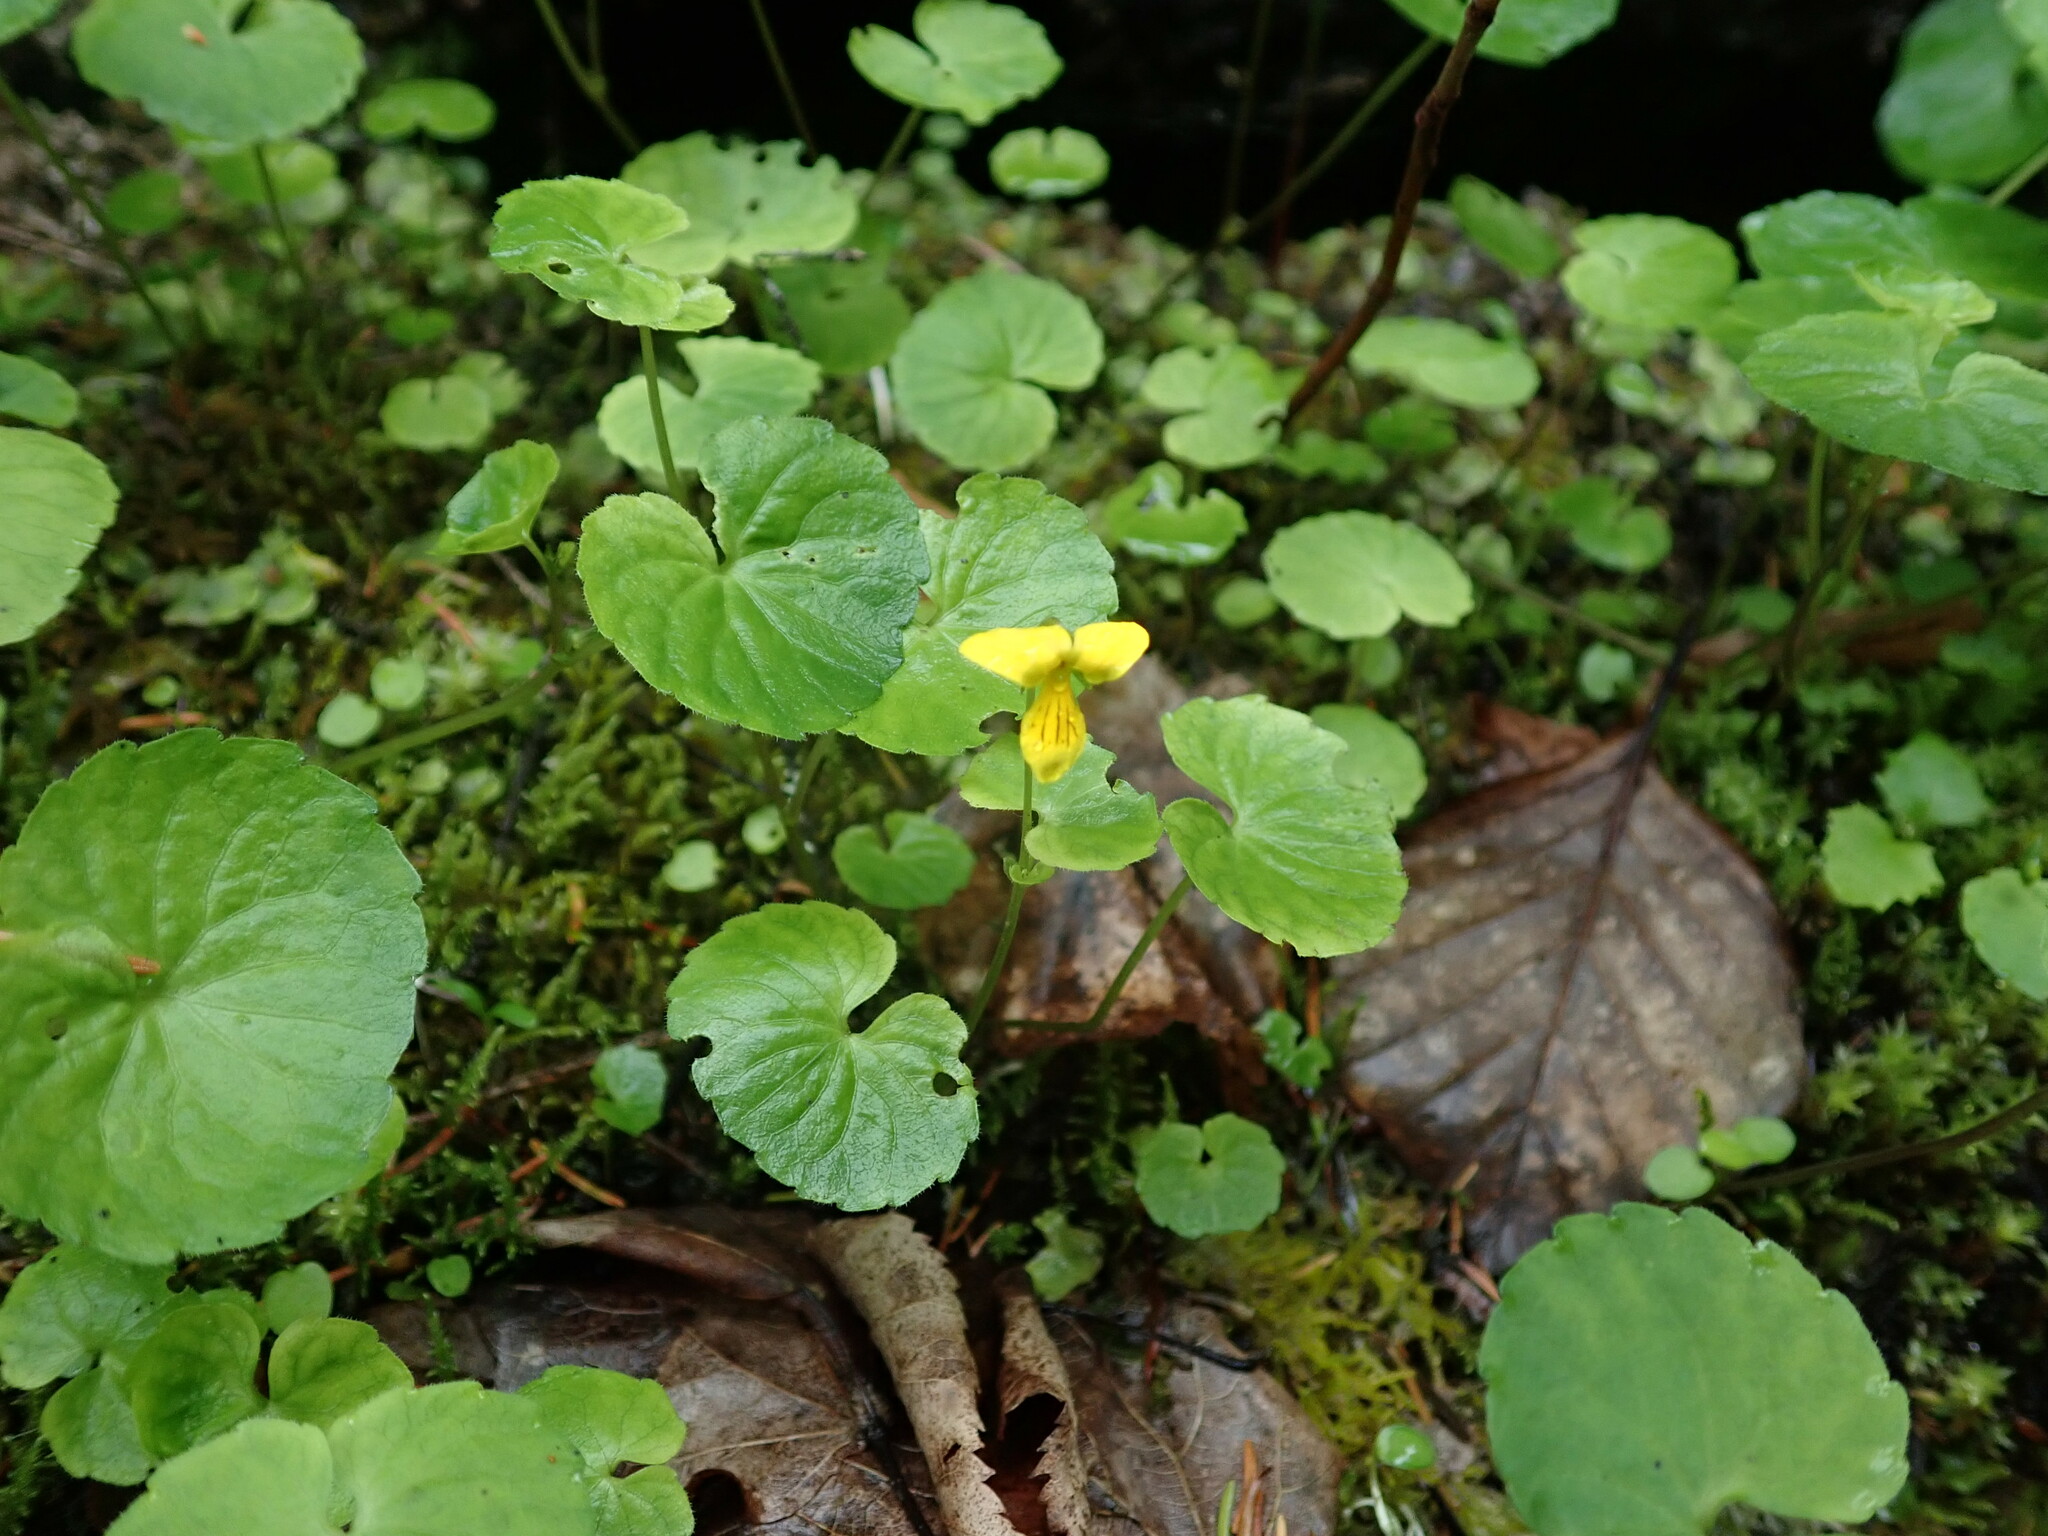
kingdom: Plantae
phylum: Tracheophyta
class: Magnoliopsida
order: Malpighiales
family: Violaceae
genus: Viola
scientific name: Viola biflora
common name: Alpine yellow violet
